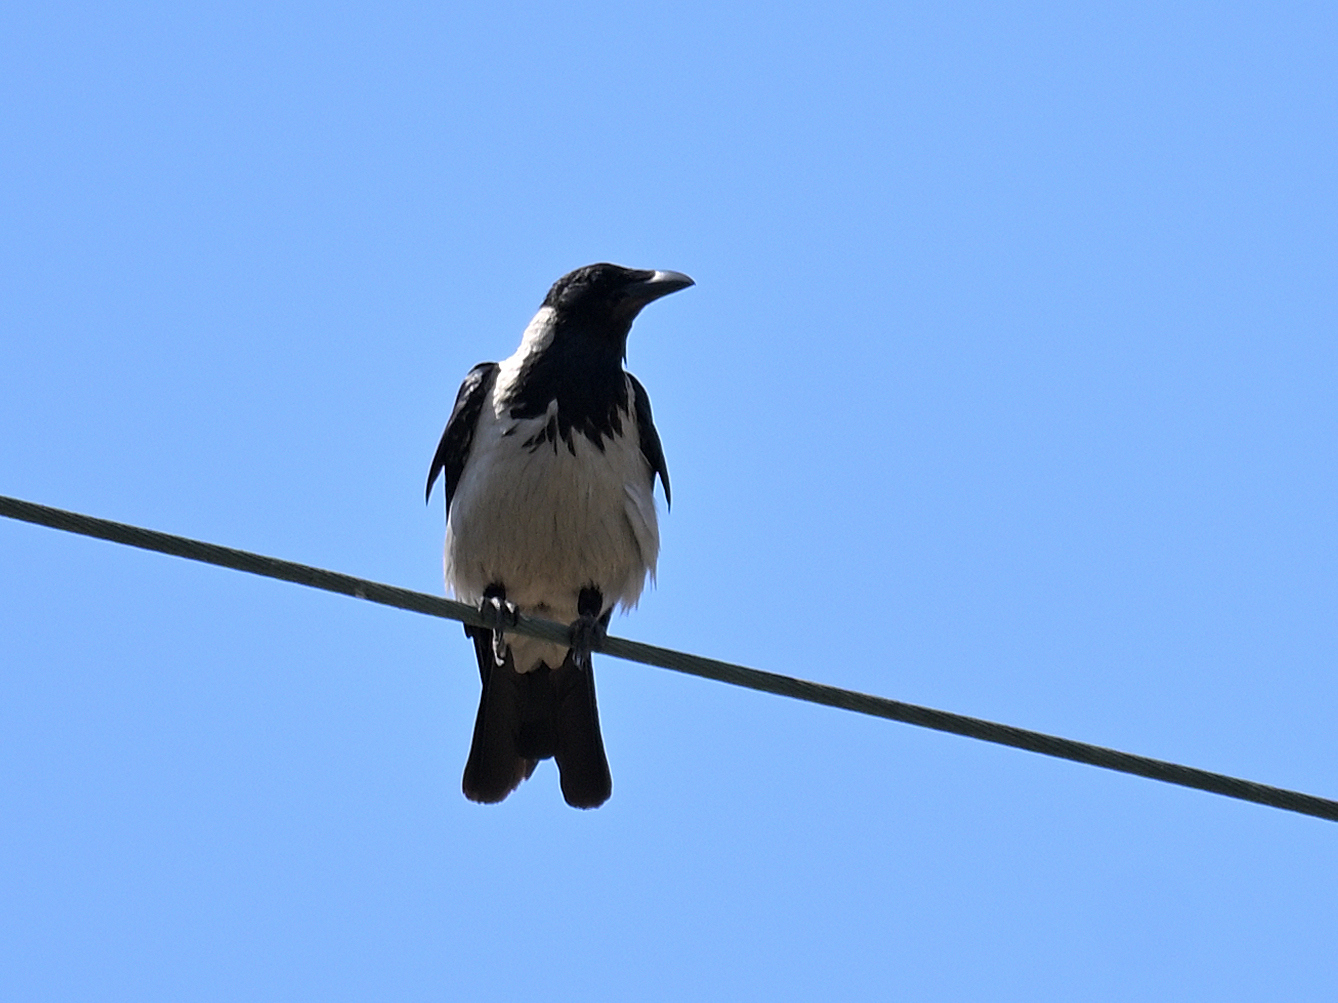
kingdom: Animalia
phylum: Chordata
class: Aves
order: Passeriformes
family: Corvidae
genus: Corvus
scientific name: Corvus cornix
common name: Hooded crow
